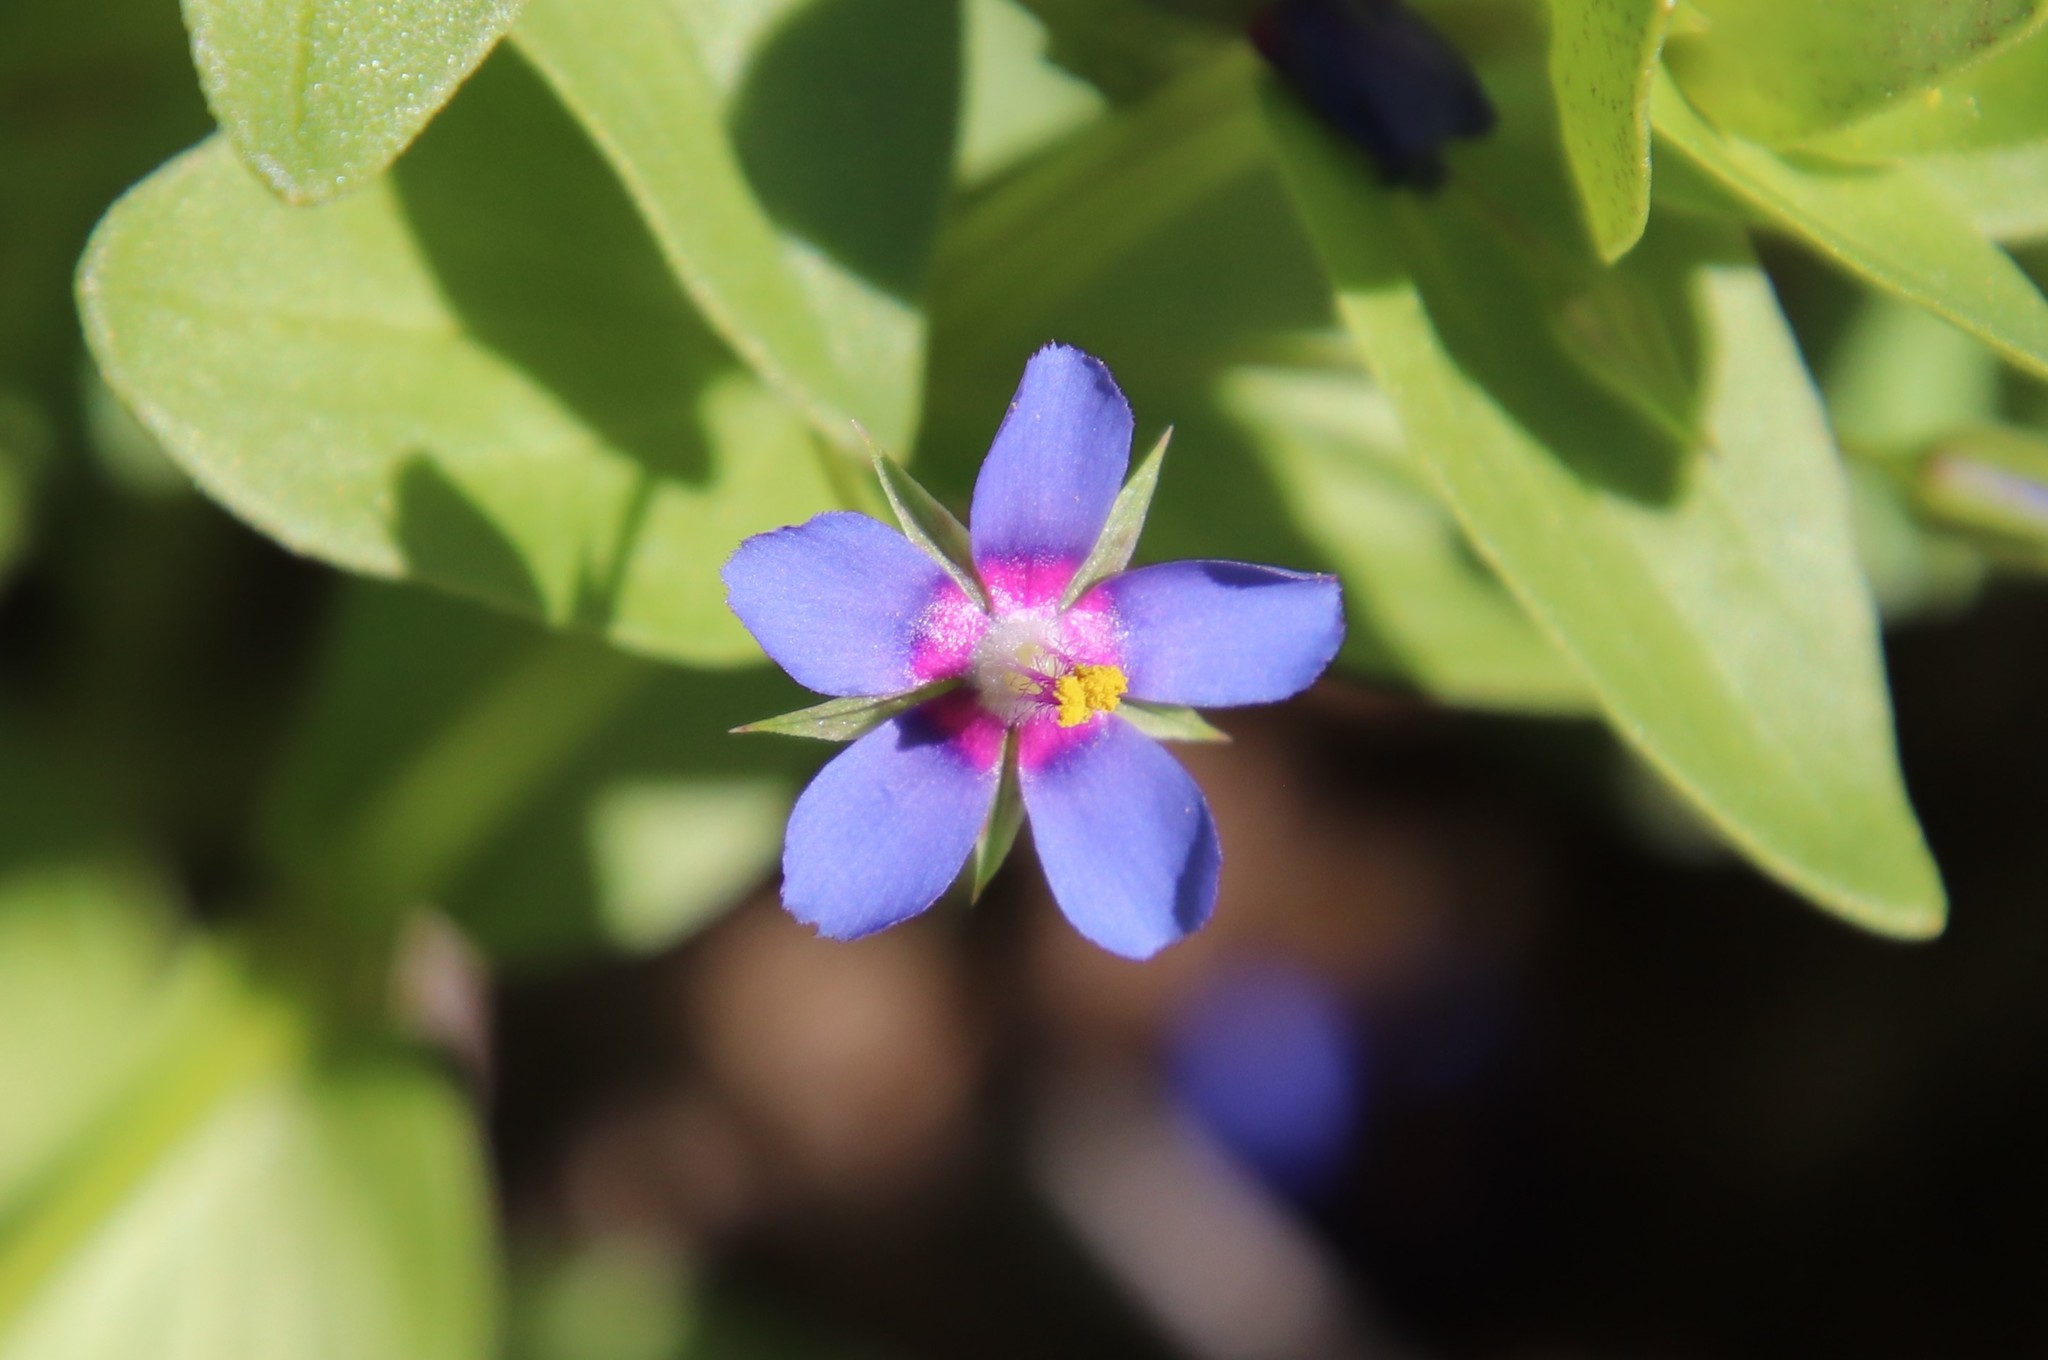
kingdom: Plantae
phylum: Tracheophyta
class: Magnoliopsida
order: Ericales
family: Primulaceae
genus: Lysimachia
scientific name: Lysimachia loeflingii
